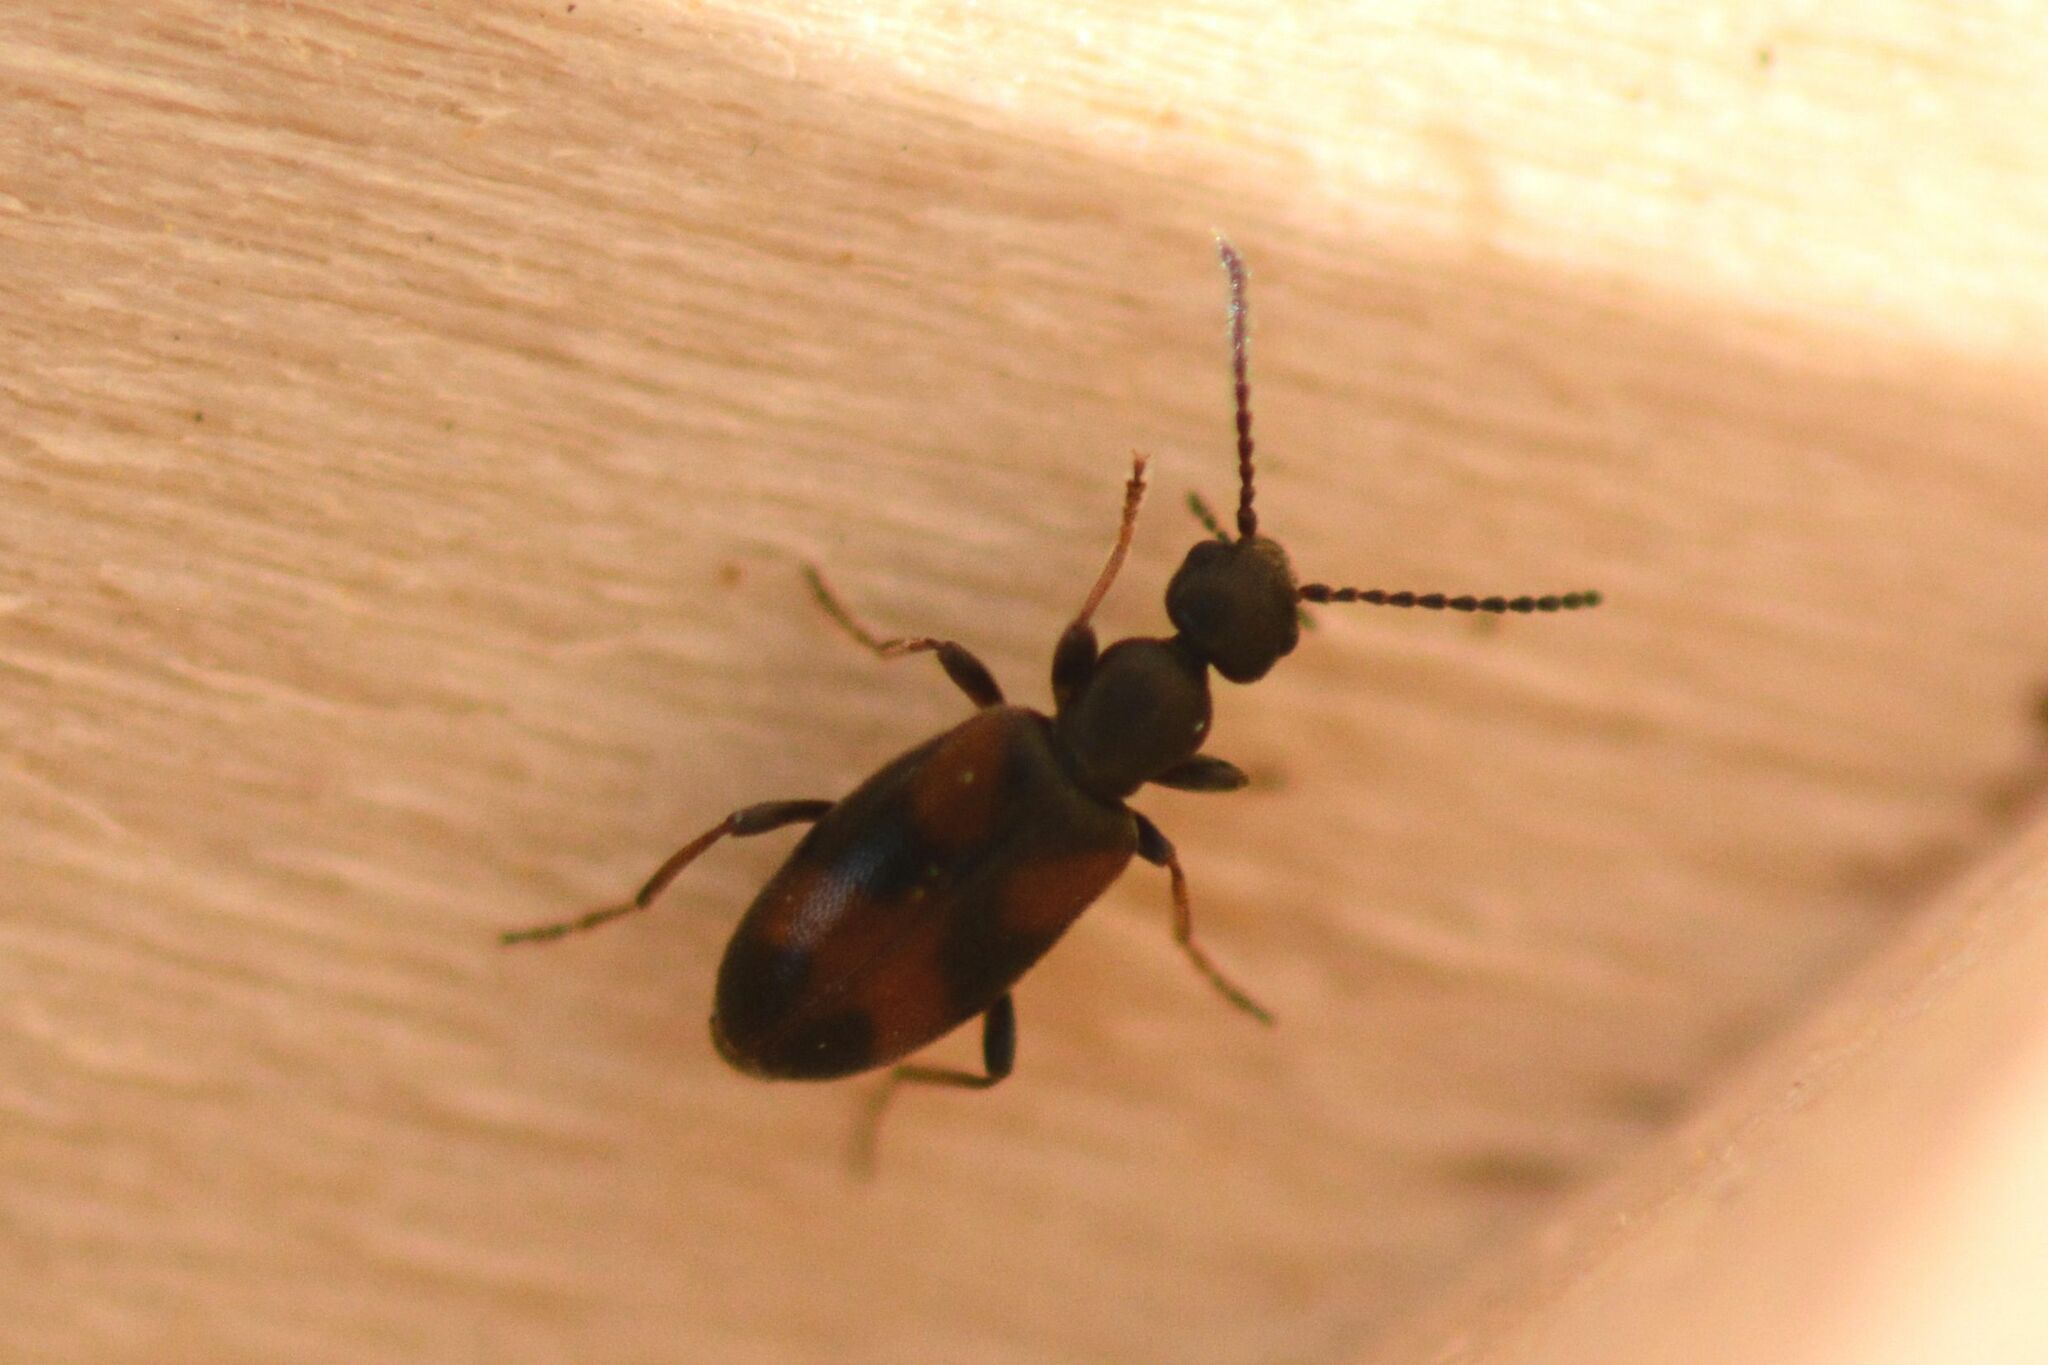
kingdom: Animalia
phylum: Arthropoda
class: Insecta
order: Coleoptera
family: Anthicidae
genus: Anthicus
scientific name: Anthicus antherinus
